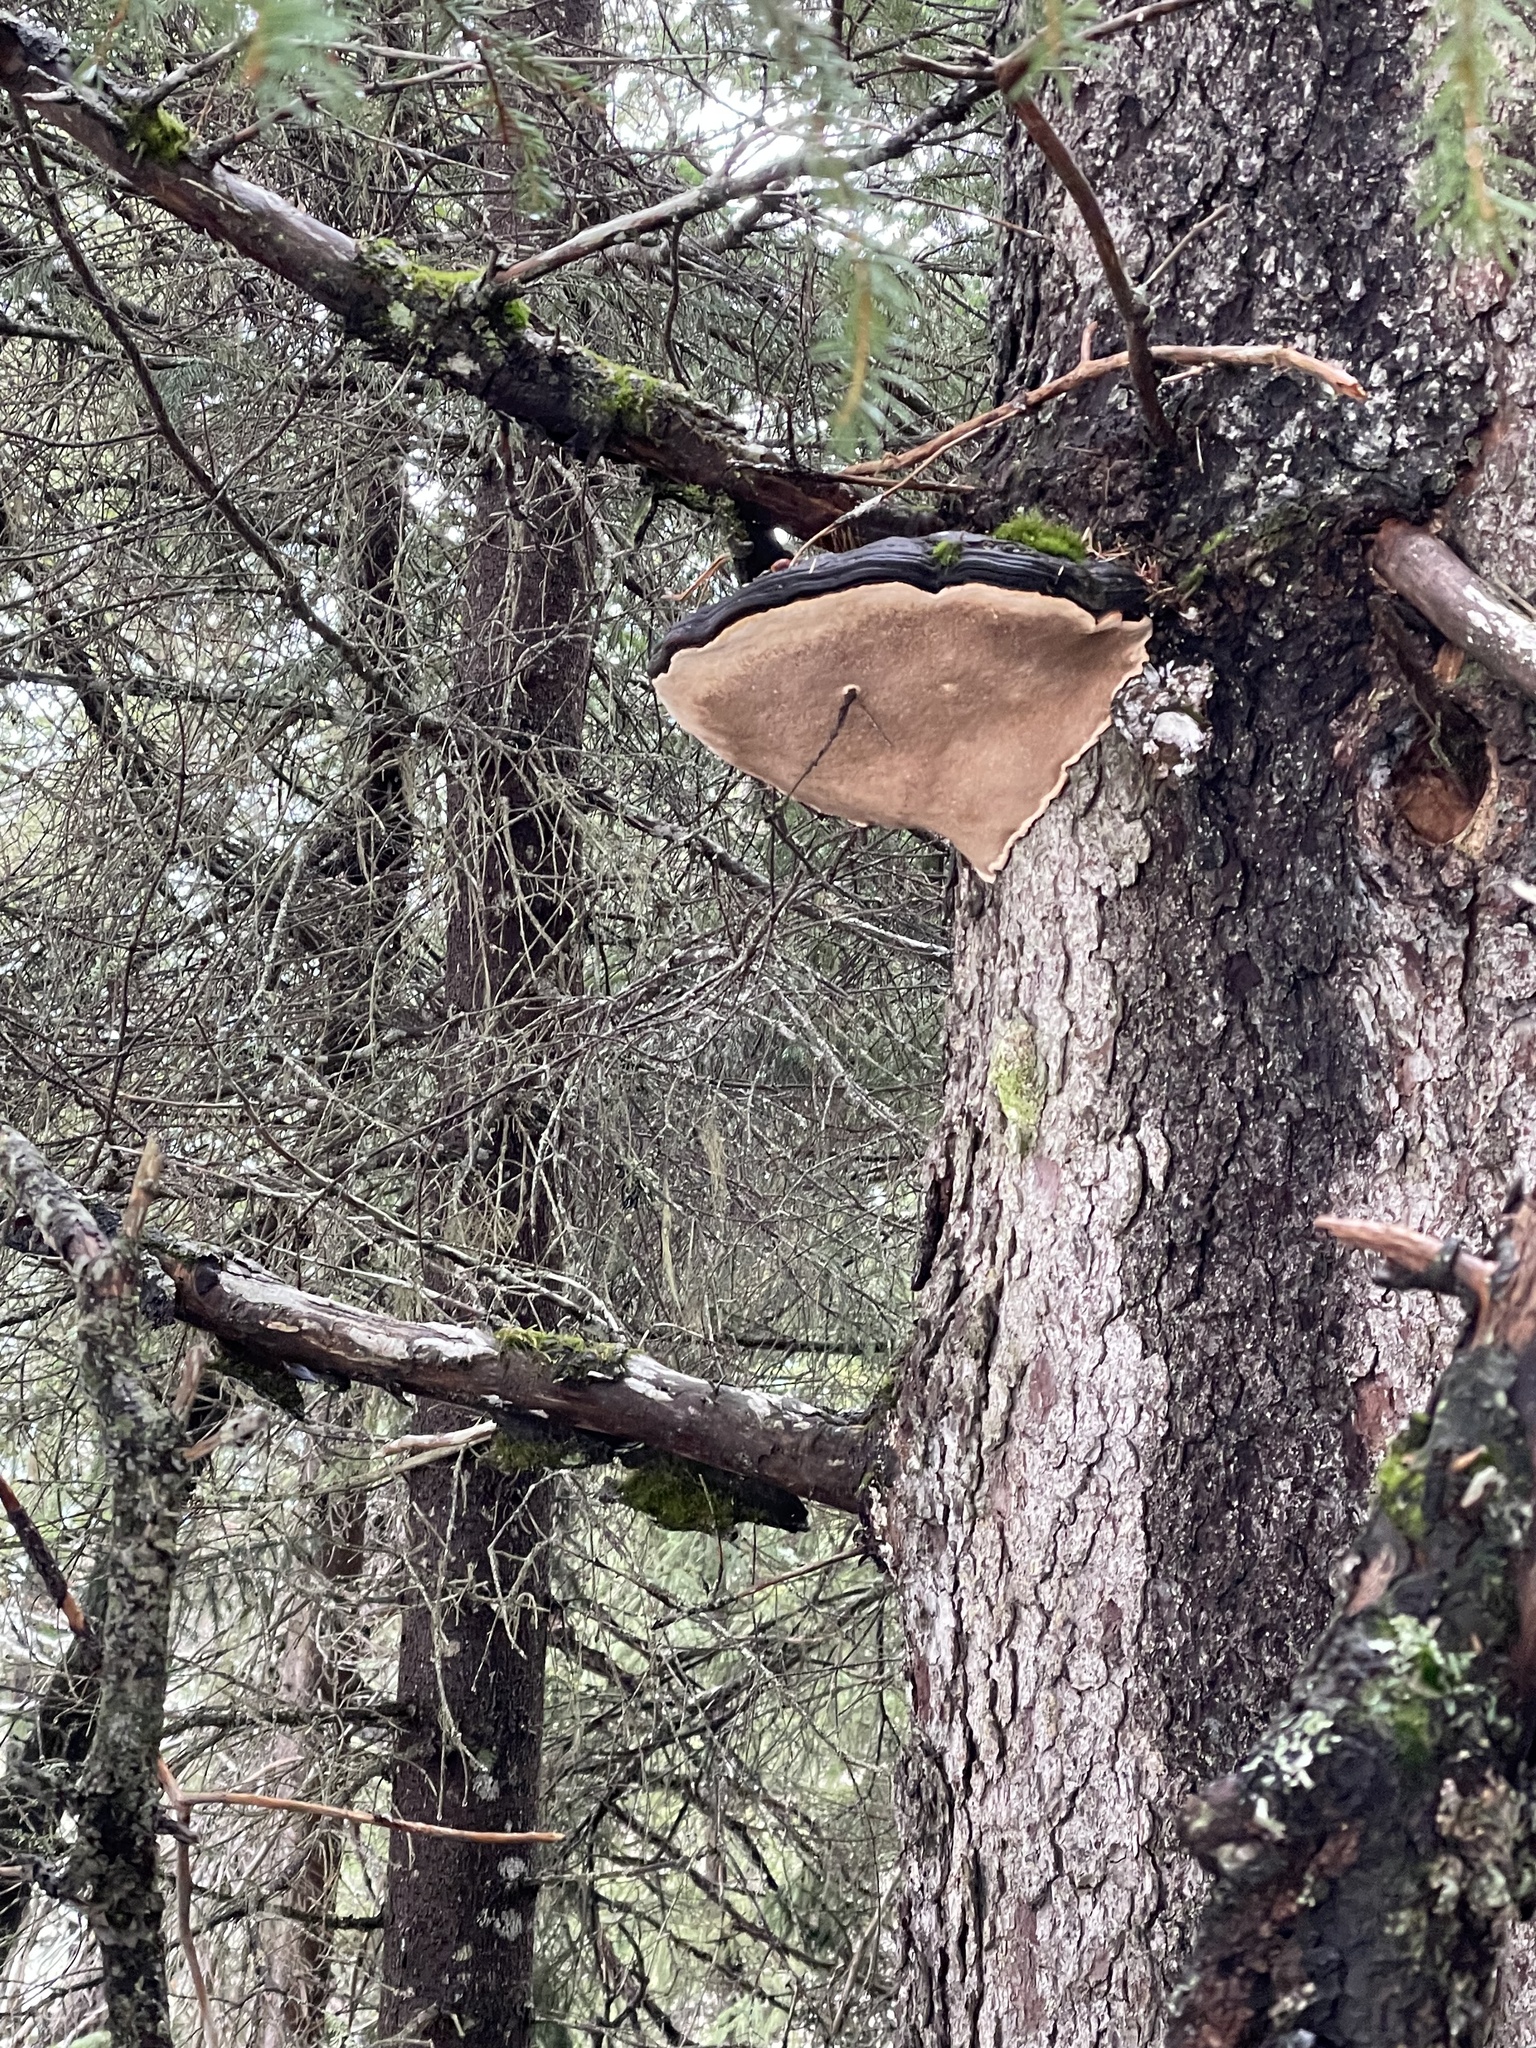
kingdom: Fungi
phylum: Basidiomycota
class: Agaricomycetes
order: Polyporales
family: Fomitopsidaceae
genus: Fomitopsis
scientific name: Fomitopsis ochracea
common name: American brown fomitopsis
